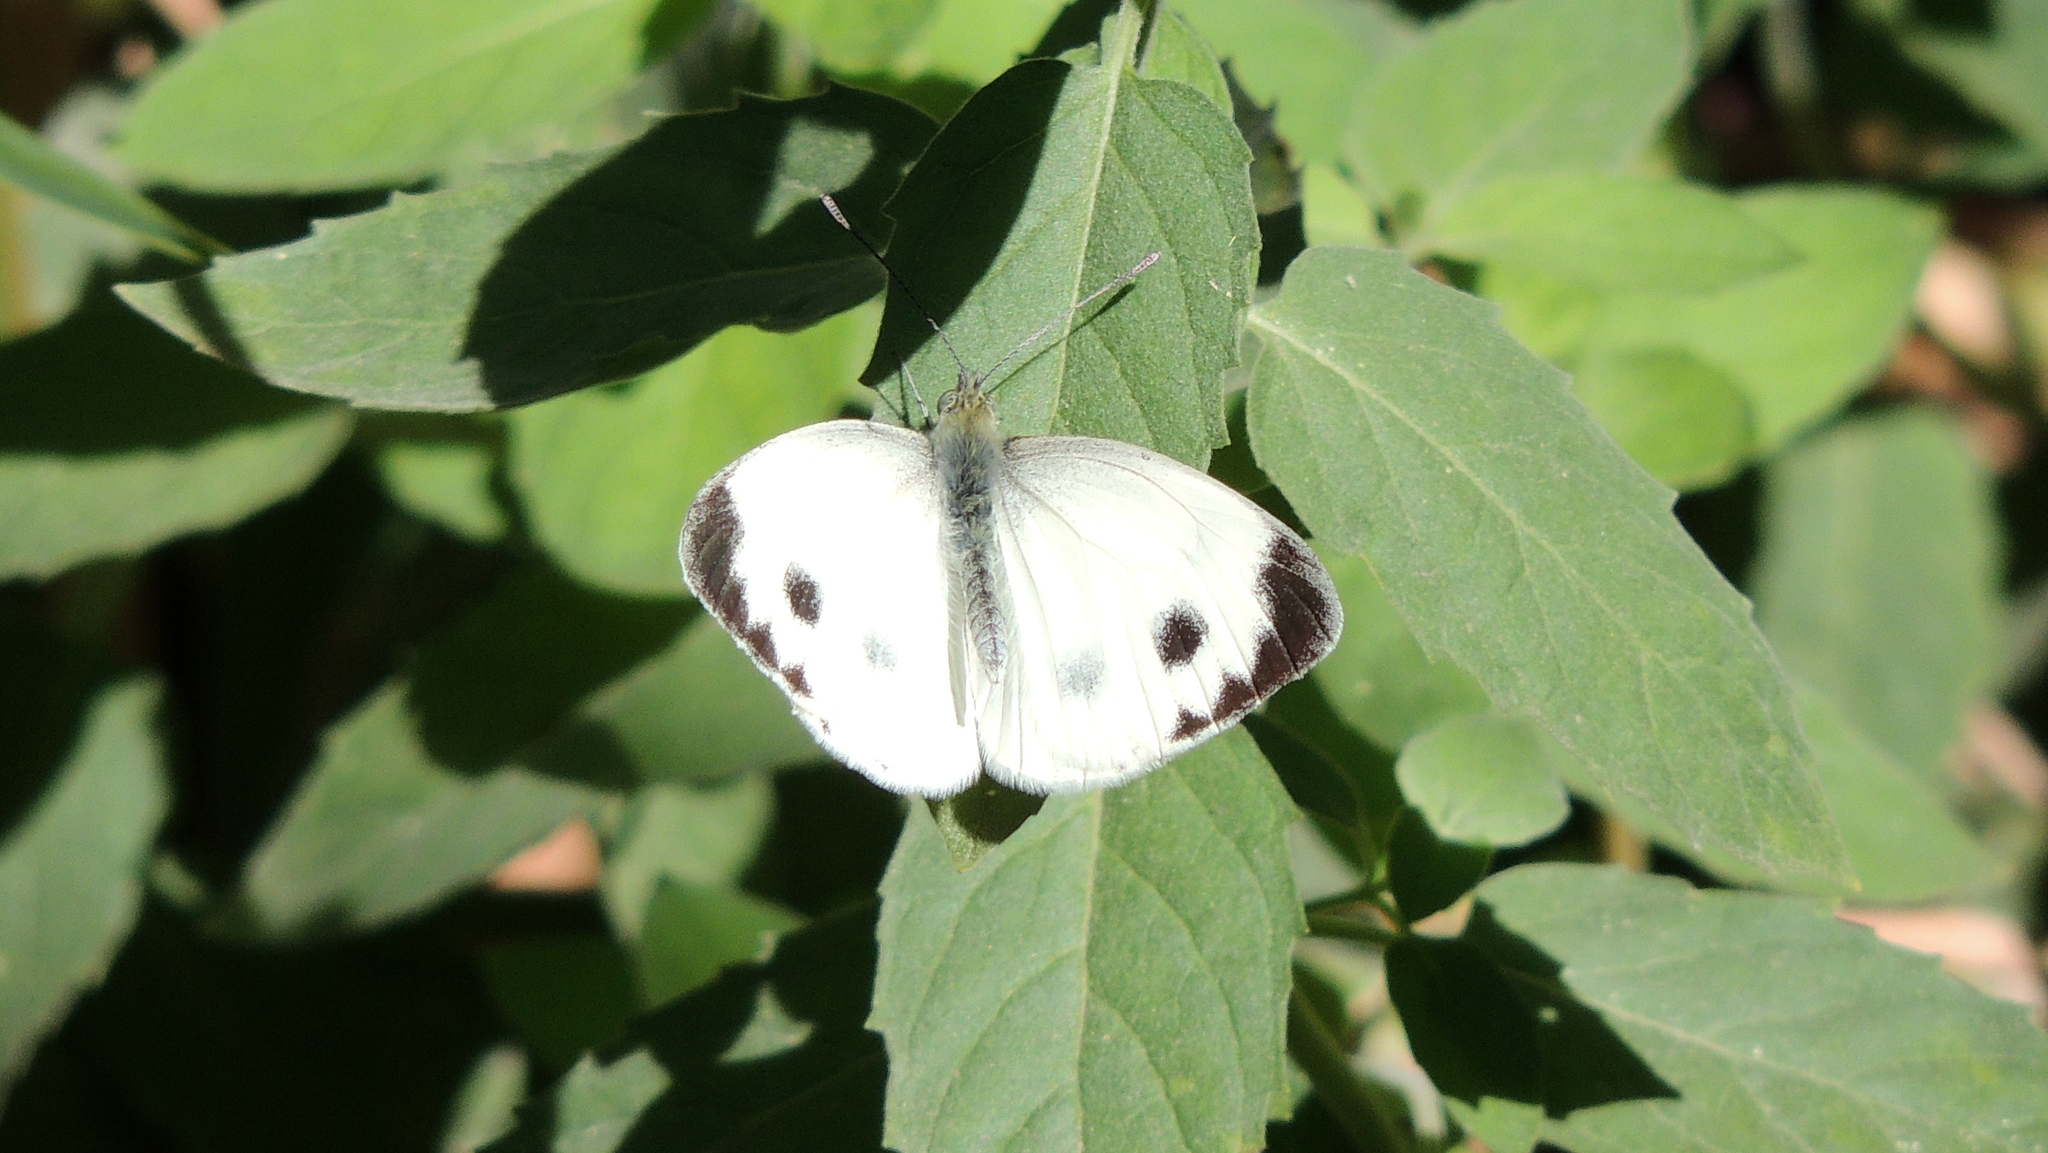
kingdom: Animalia
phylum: Arthropoda
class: Insecta
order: Lepidoptera
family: Pieridae
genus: Pieris
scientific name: Pieris brassicae
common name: Large white
